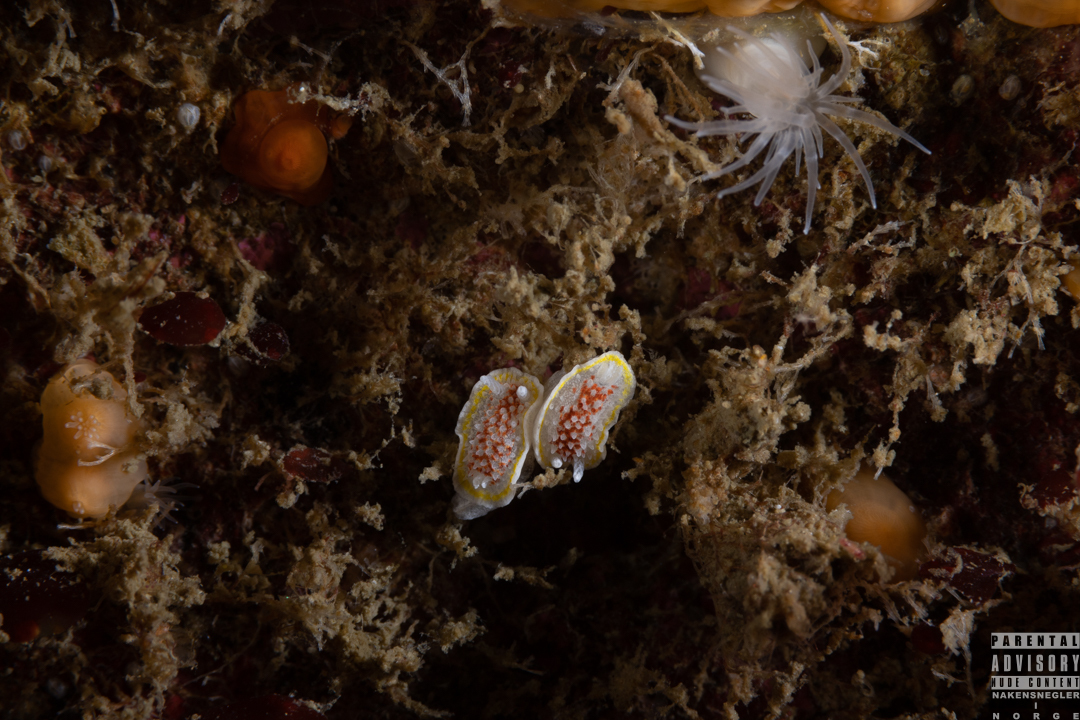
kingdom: Animalia
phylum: Mollusca
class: Gastropoda
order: Nudibranchia
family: Calycidorididae
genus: Diaphorodoris
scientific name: Diaphorodoris luteocincta
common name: Fried egg nudibranch
